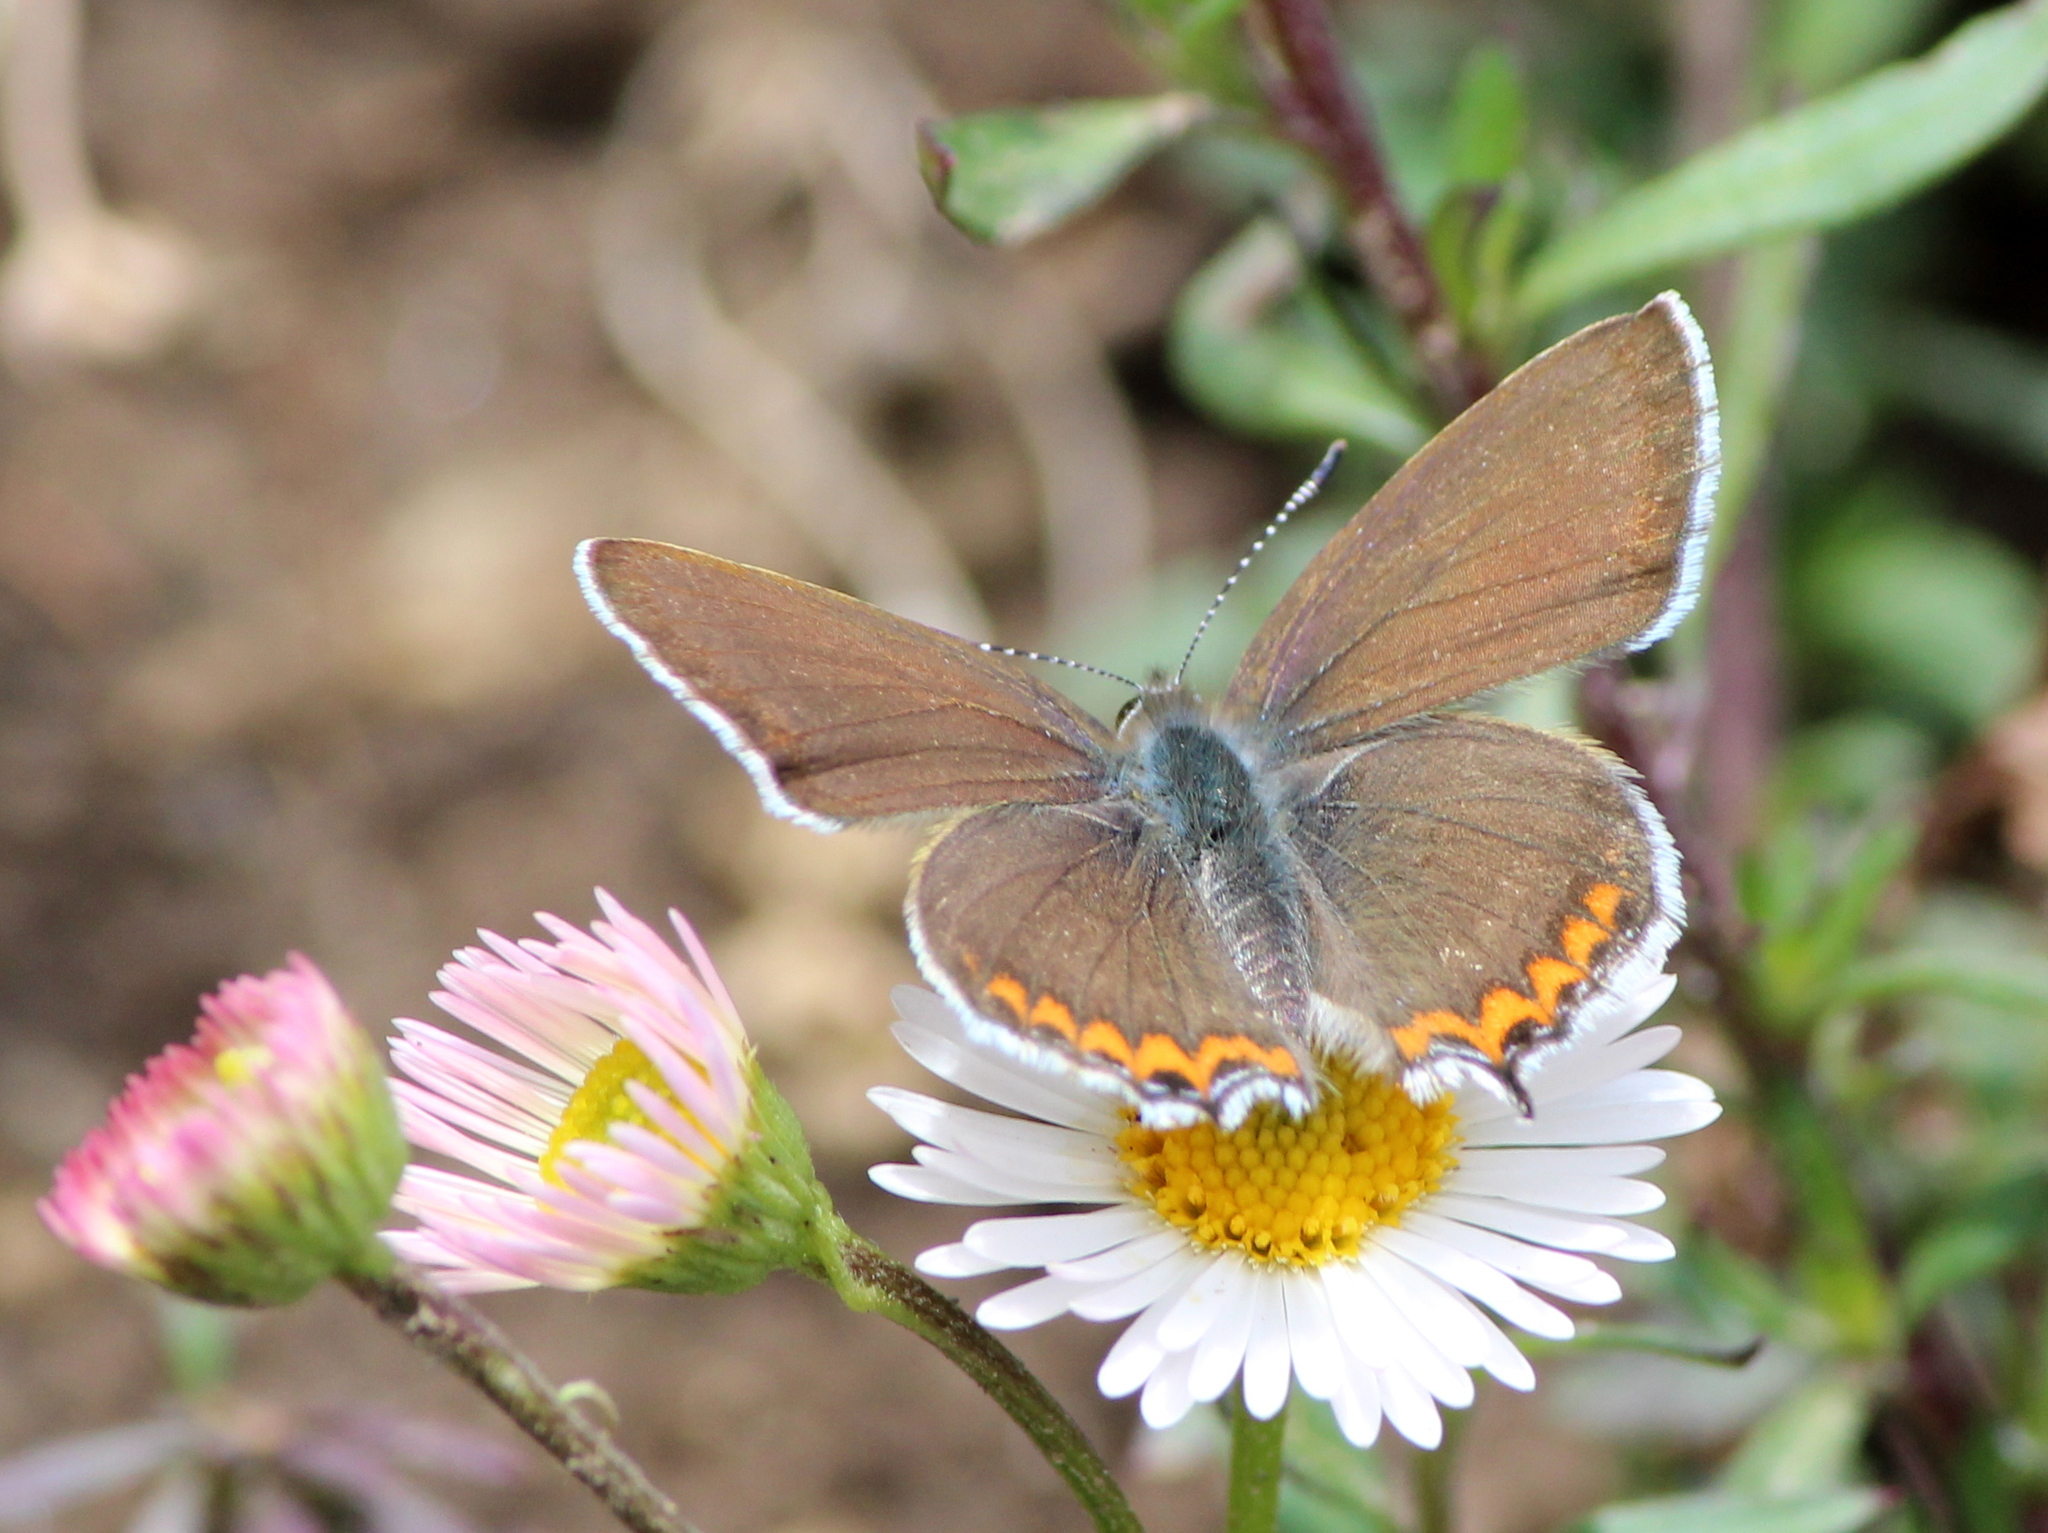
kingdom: Animalia
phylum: Arthropoda
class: Insecta
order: Lepidoptera
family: Lycaenidae
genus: Heliophorus
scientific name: Heliophorus sena
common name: Sorrel sapphire
